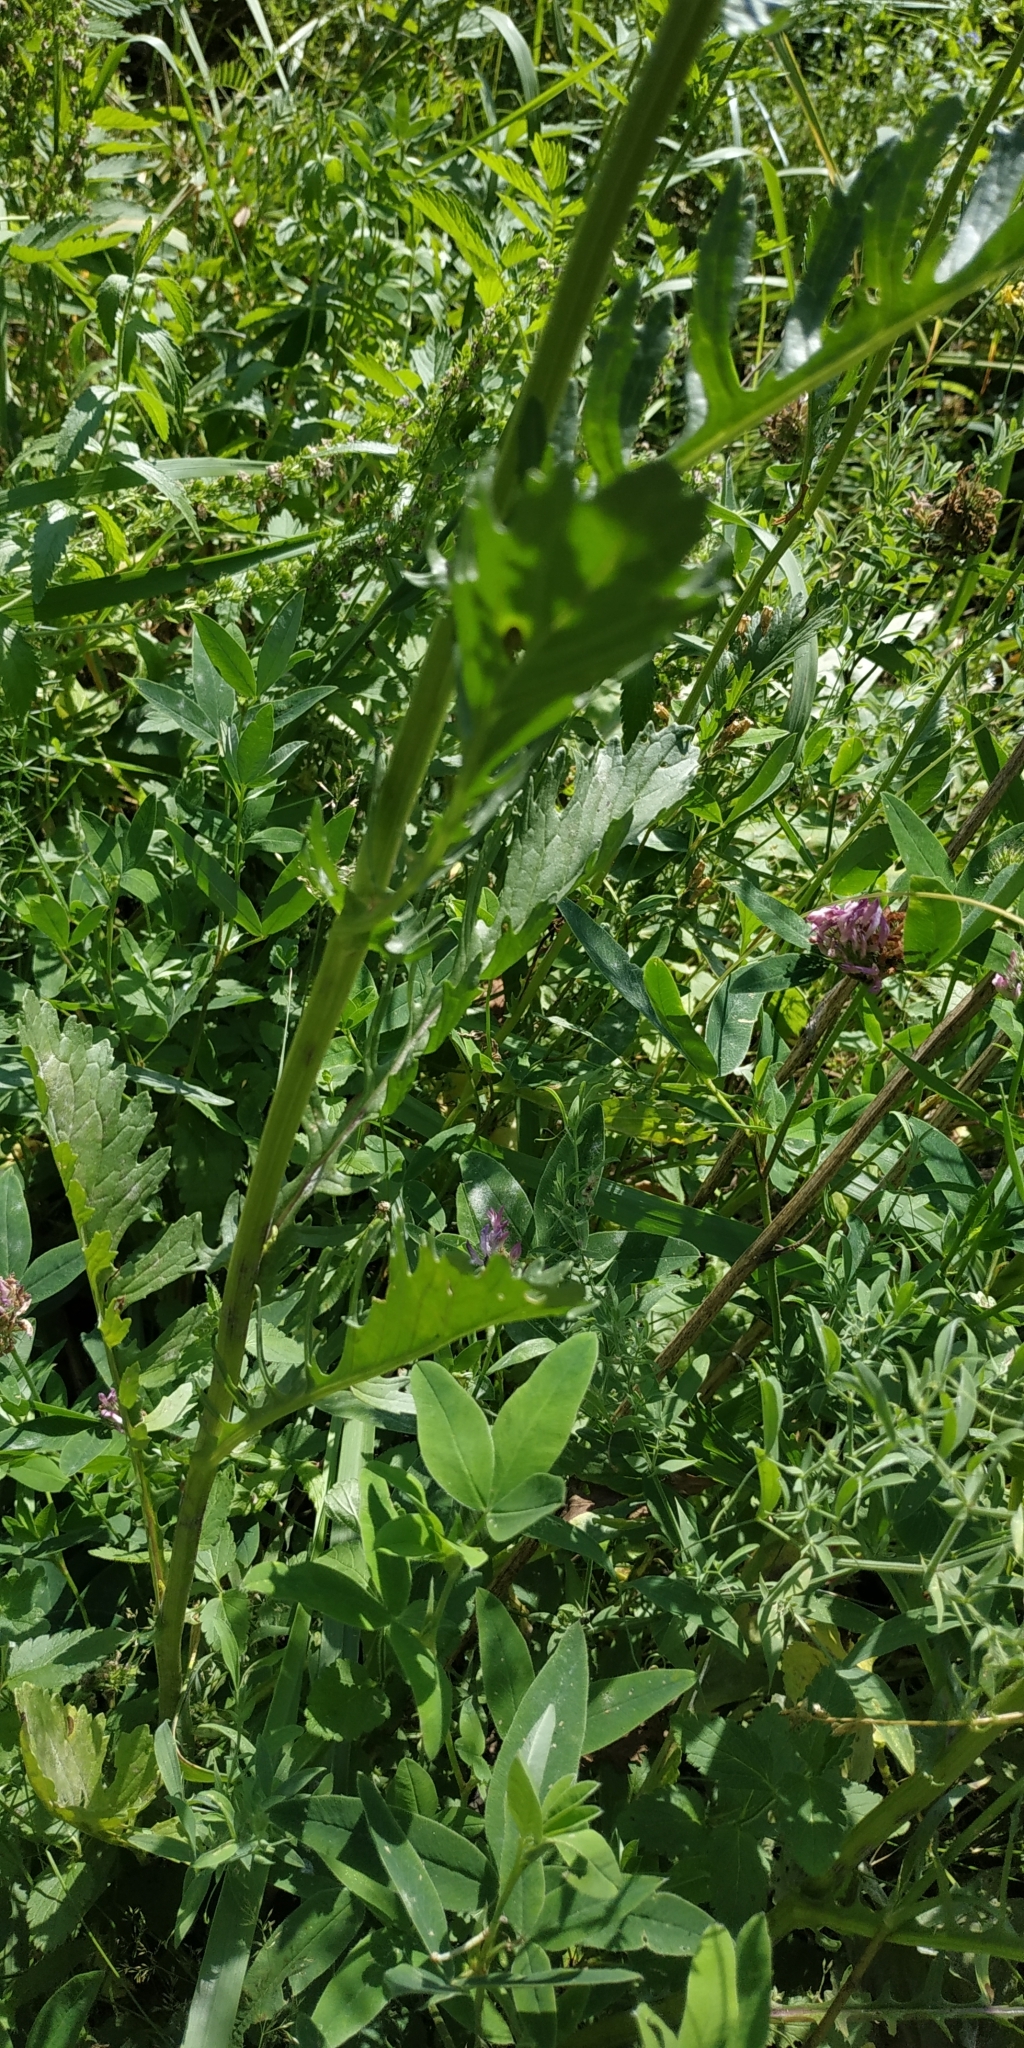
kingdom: Plantae
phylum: Tracheophyta
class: Magnoliopsida
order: Asterales
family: Asteraceae
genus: Jacobaea
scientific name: Jacobaea vulgaris
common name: Stinking willie
